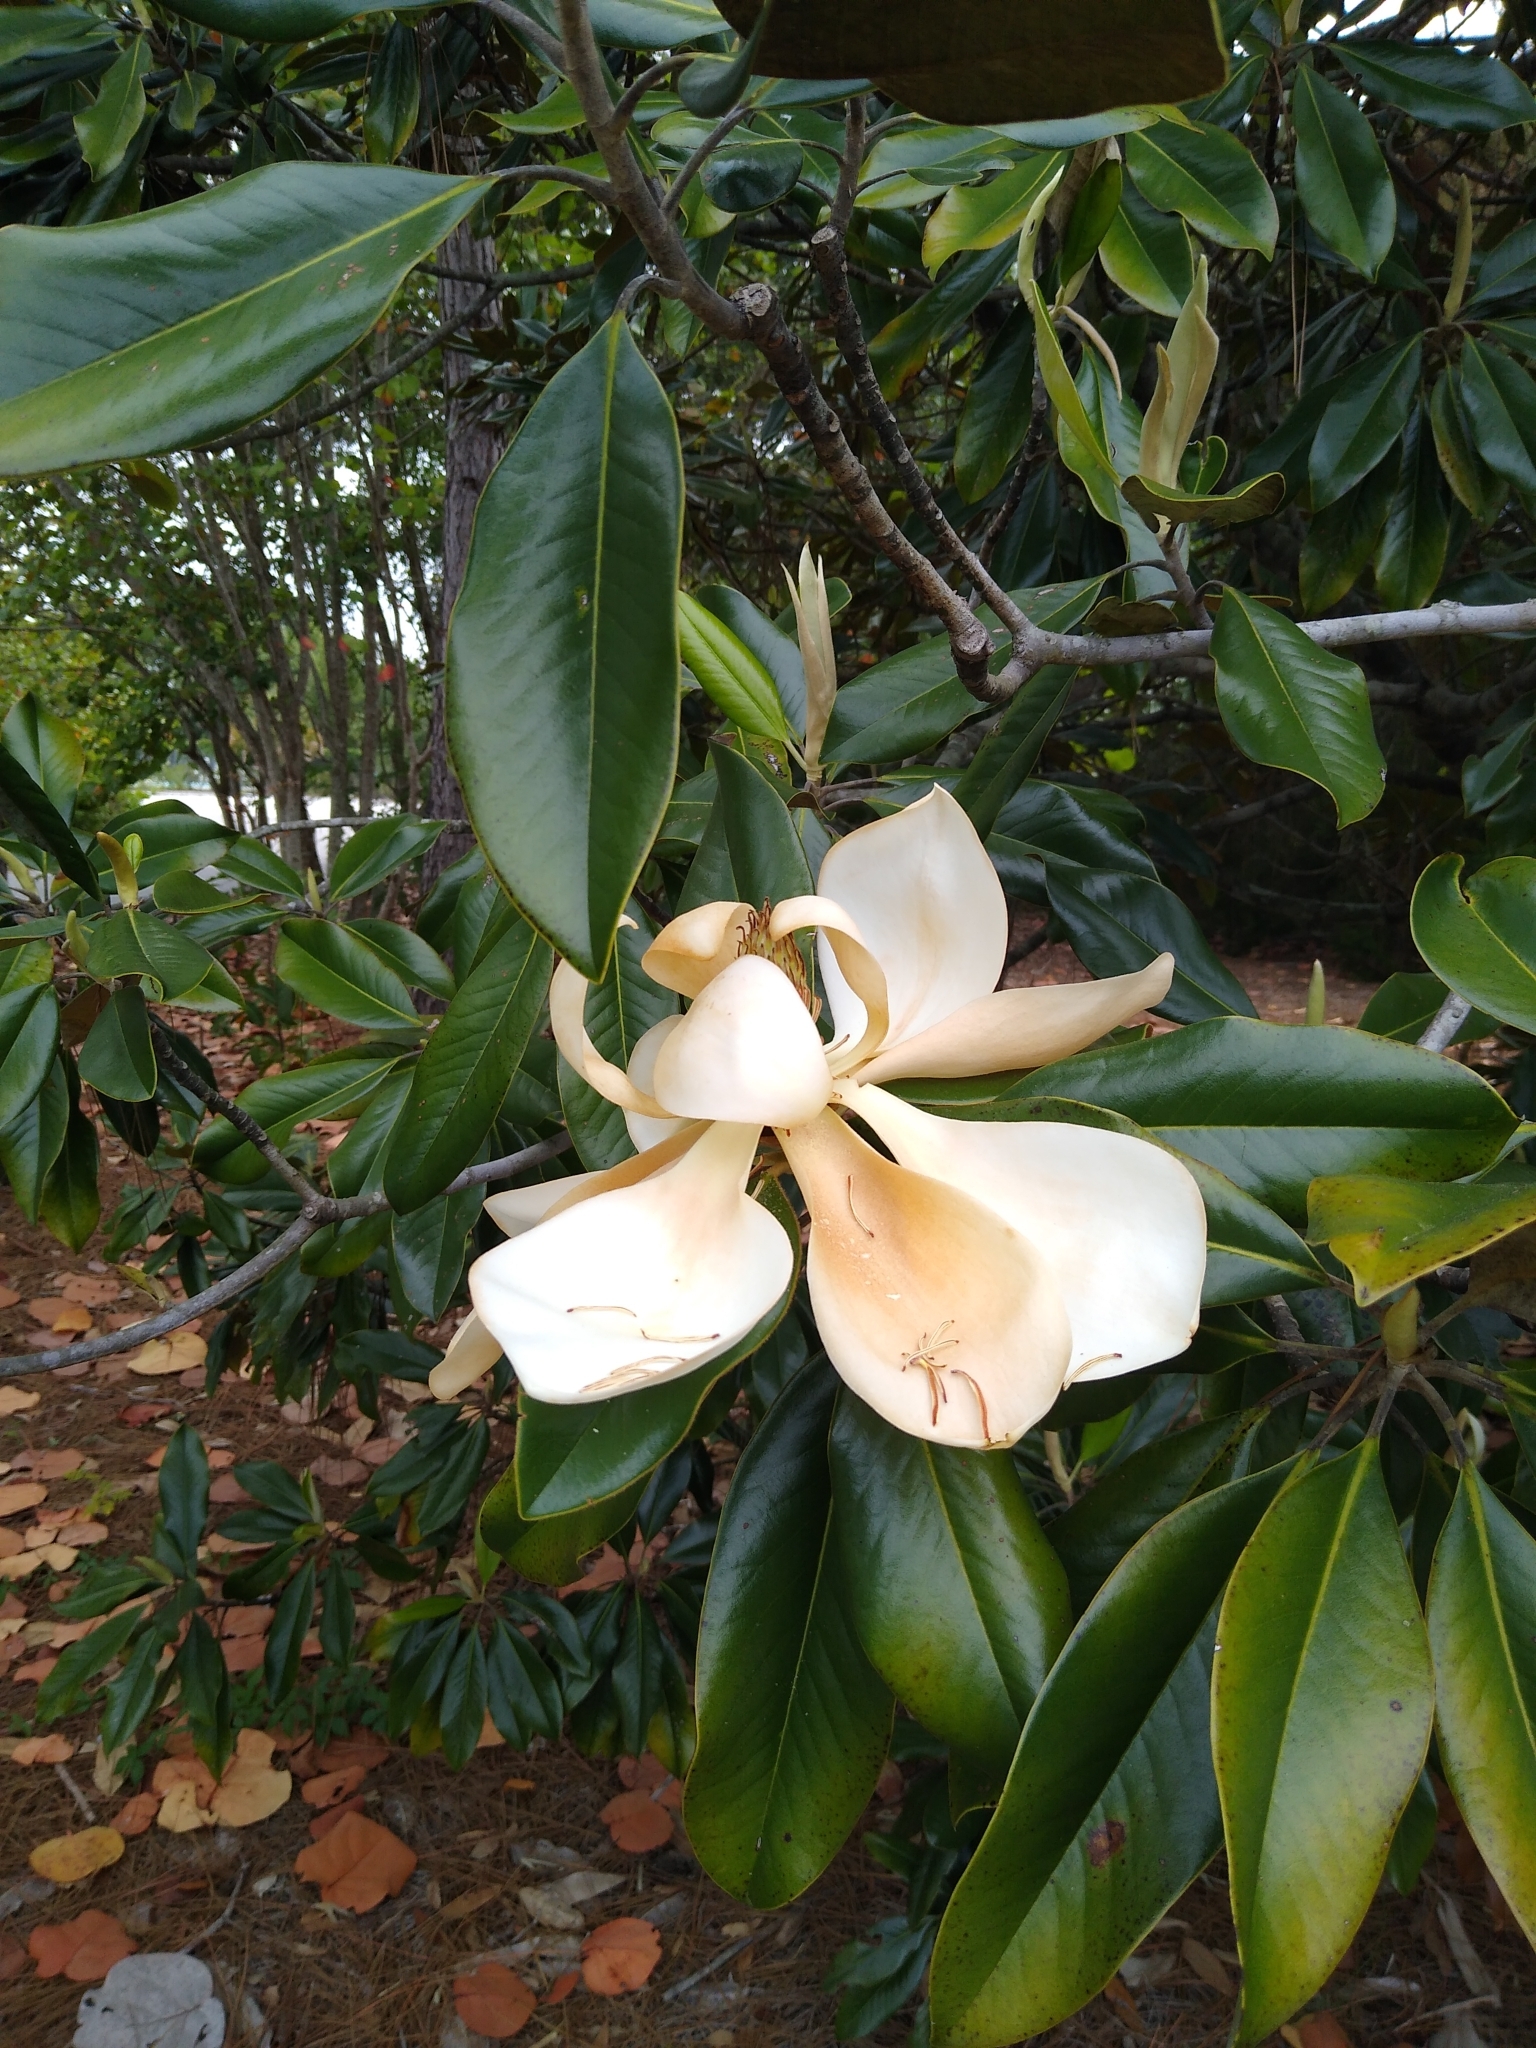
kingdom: Plantae
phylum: Tracheophyta
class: Magnoliopsida
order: Magnoliales
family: Magnoliaceae
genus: Magnolia
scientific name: Magnolia grandiflora
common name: Southern magnolia
